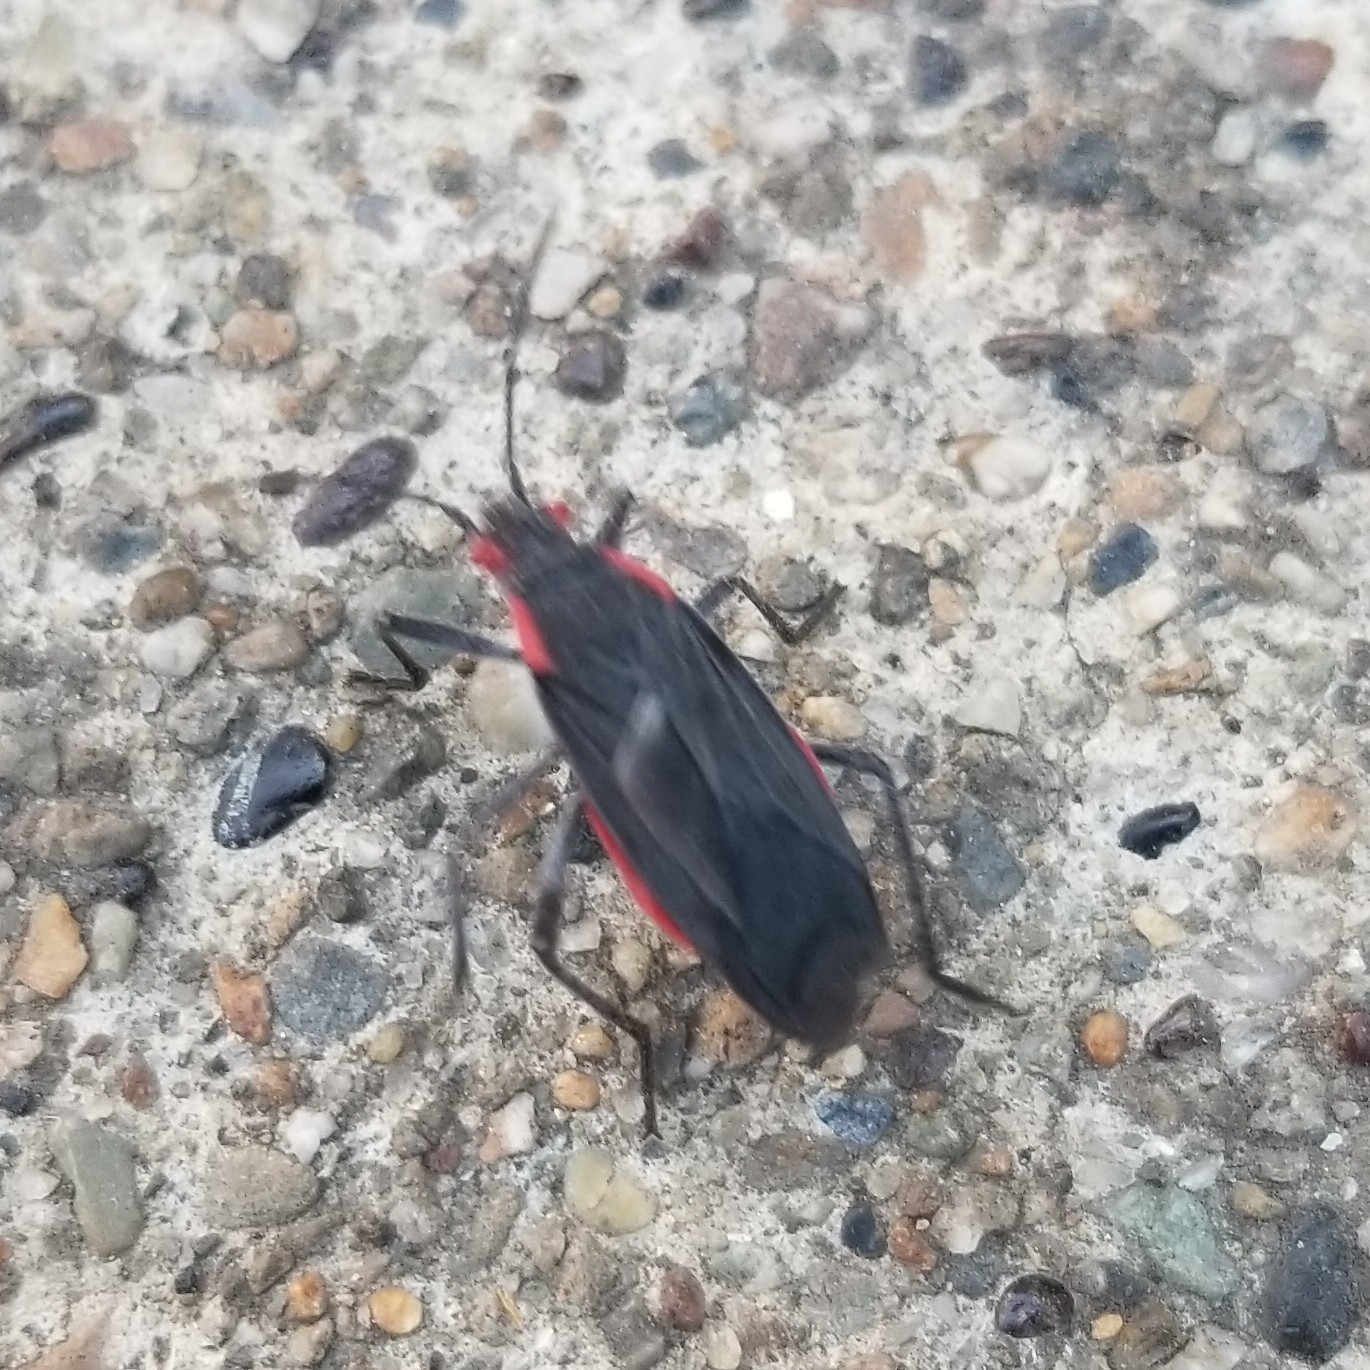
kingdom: Animalia
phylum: Arthropoda
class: Insecta
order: Hemiptera
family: Rhopalidae
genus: Jadera
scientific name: Jadera haematoloma
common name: Red-shouldered bug
